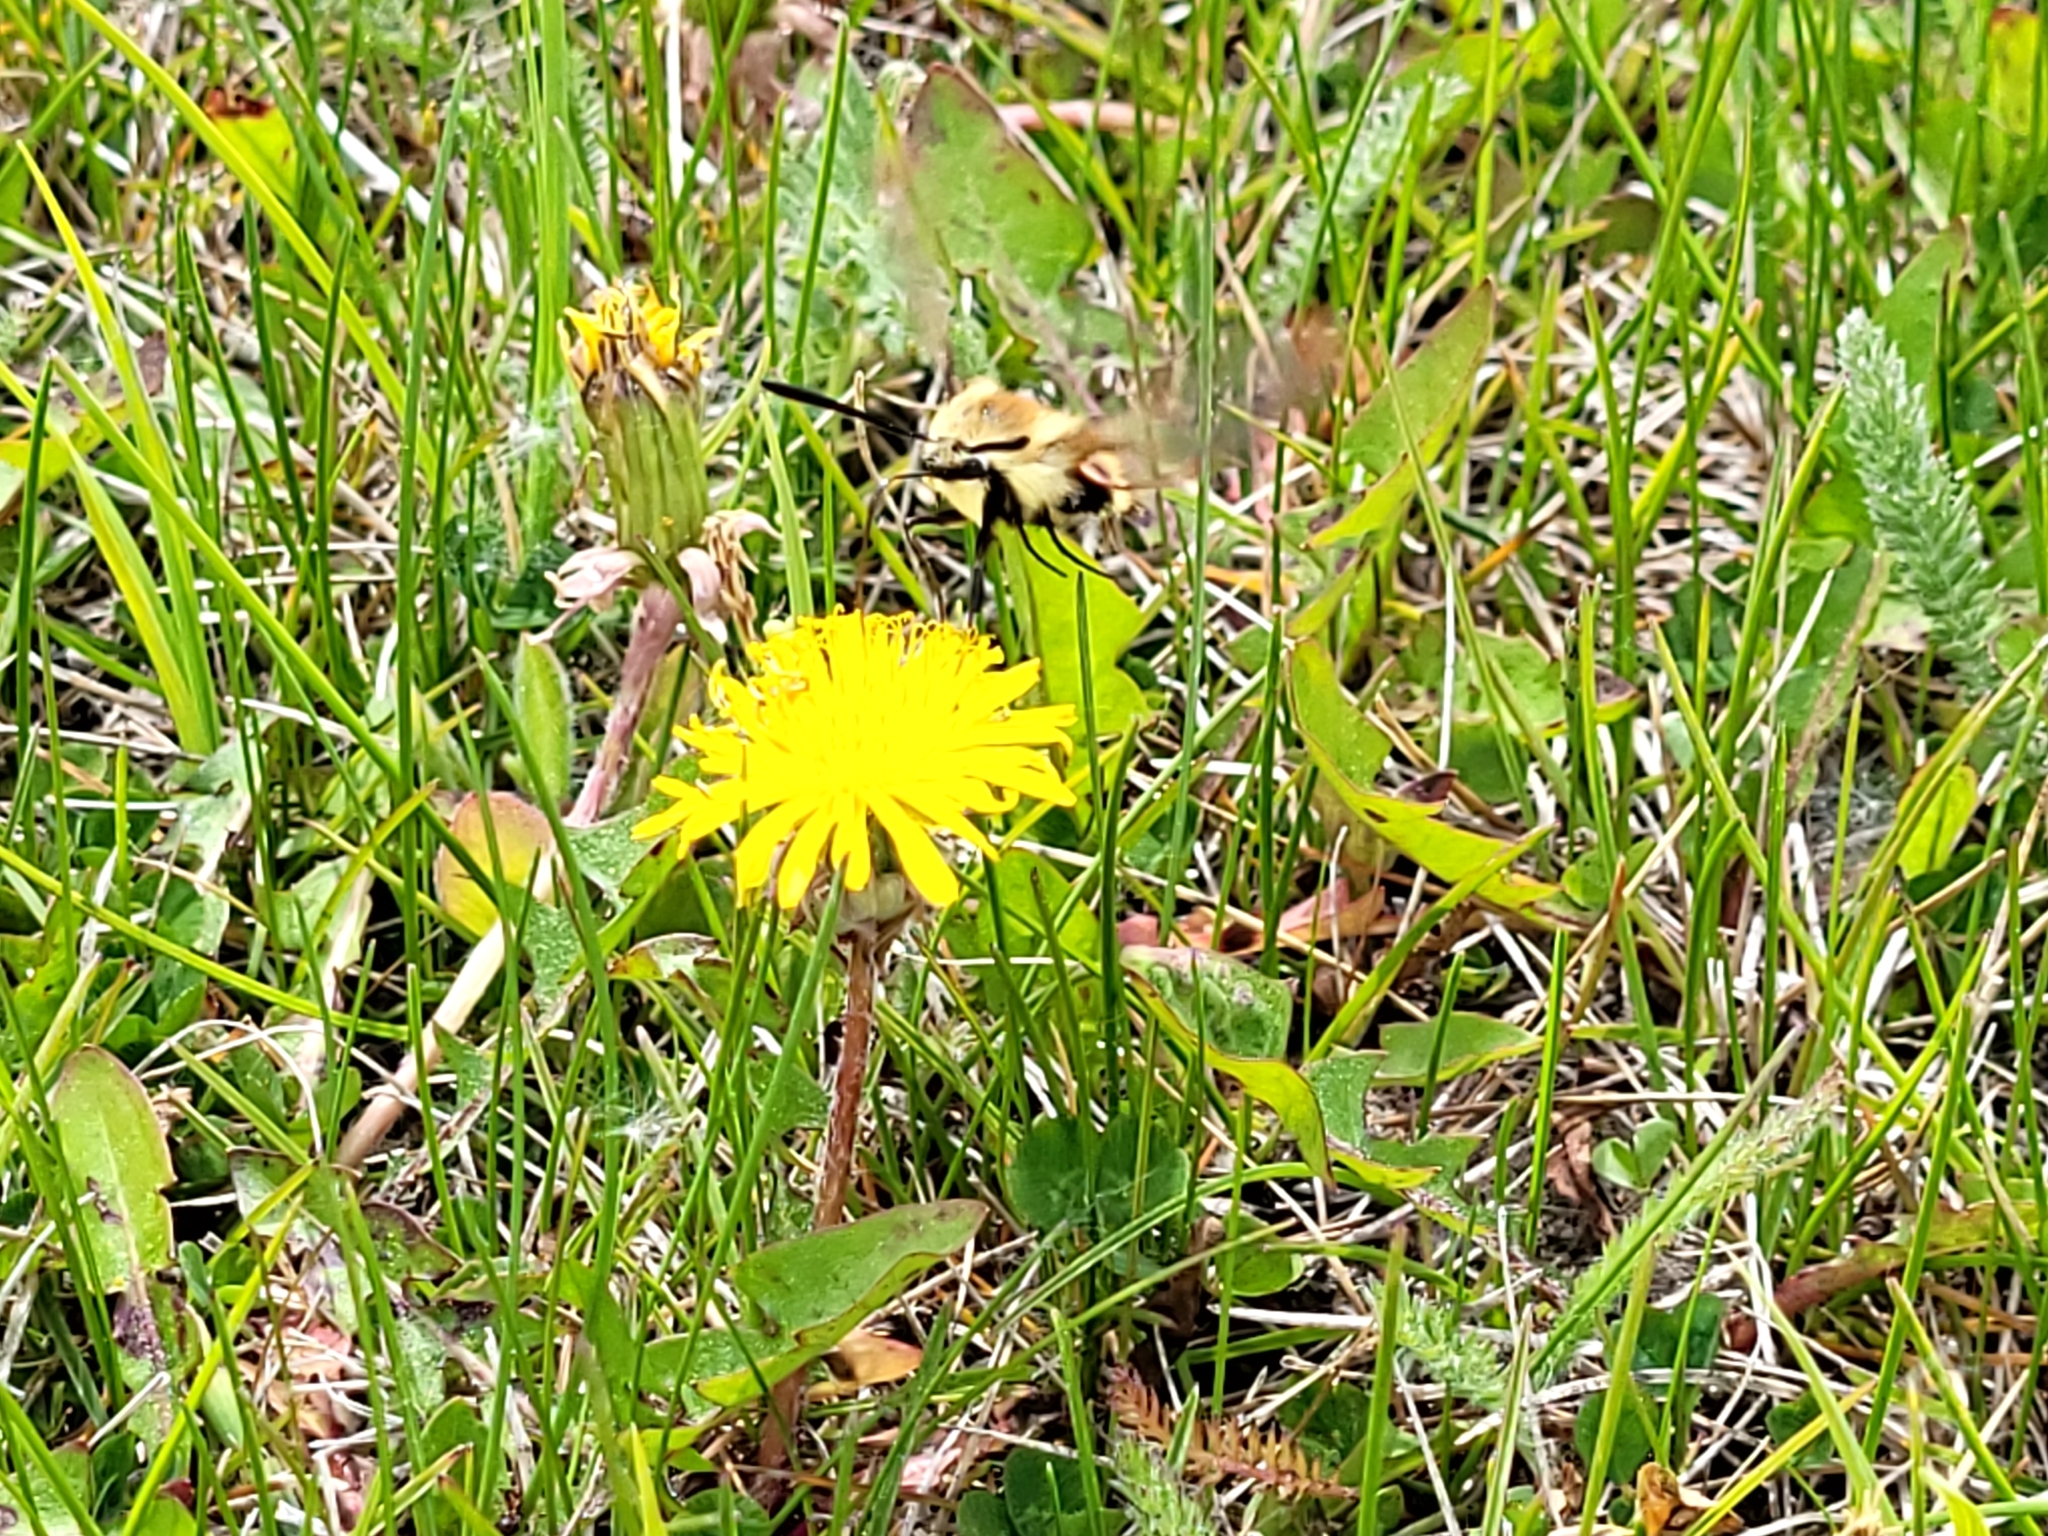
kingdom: Animalia
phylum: Arthropoda
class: Insecta
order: Lepidoptera
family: Sphingidae
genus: Hemaris
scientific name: Hemaris diffinis
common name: Bumblebee moth
